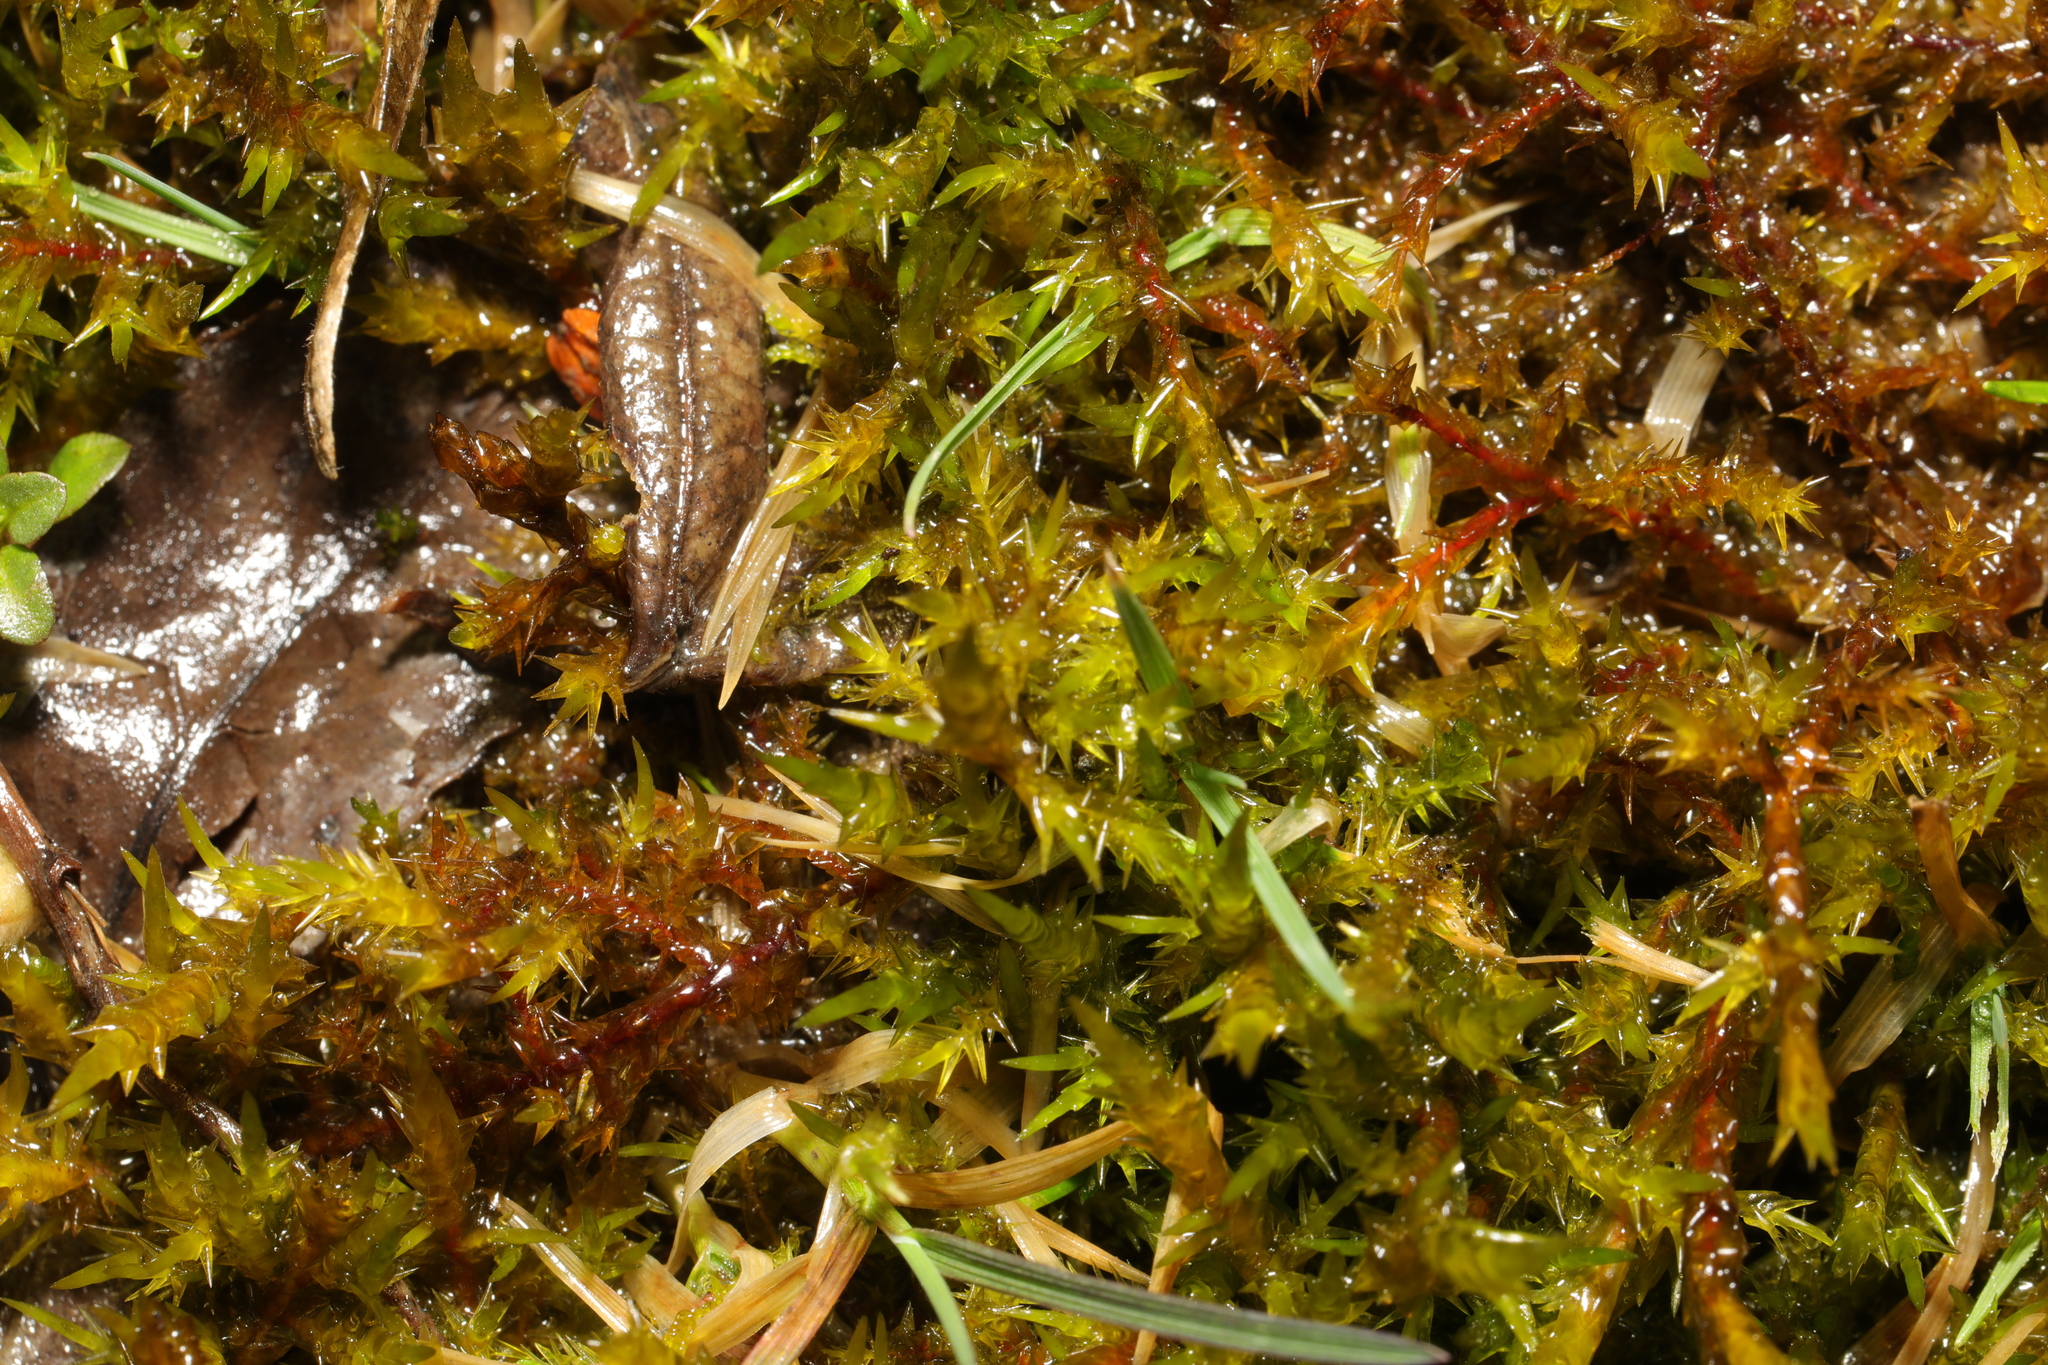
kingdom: Plantae
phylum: Bryophyta
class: Bryopsida
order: Hypnales
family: Pylaisiaceae
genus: Calliergonella
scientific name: Calliergonella cuspidata
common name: Common large wetland moss
